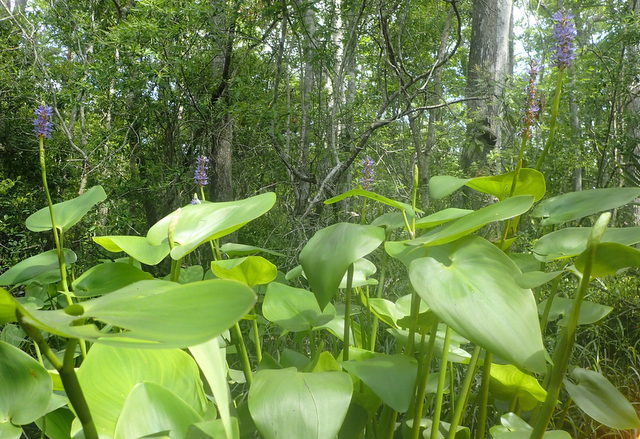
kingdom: Plantae
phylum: Tracheophyta
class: Liliopsida
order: Commelinales
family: Pontederiaceae
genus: Pontederia
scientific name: Pontederia cordata
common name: Pickerelweed
